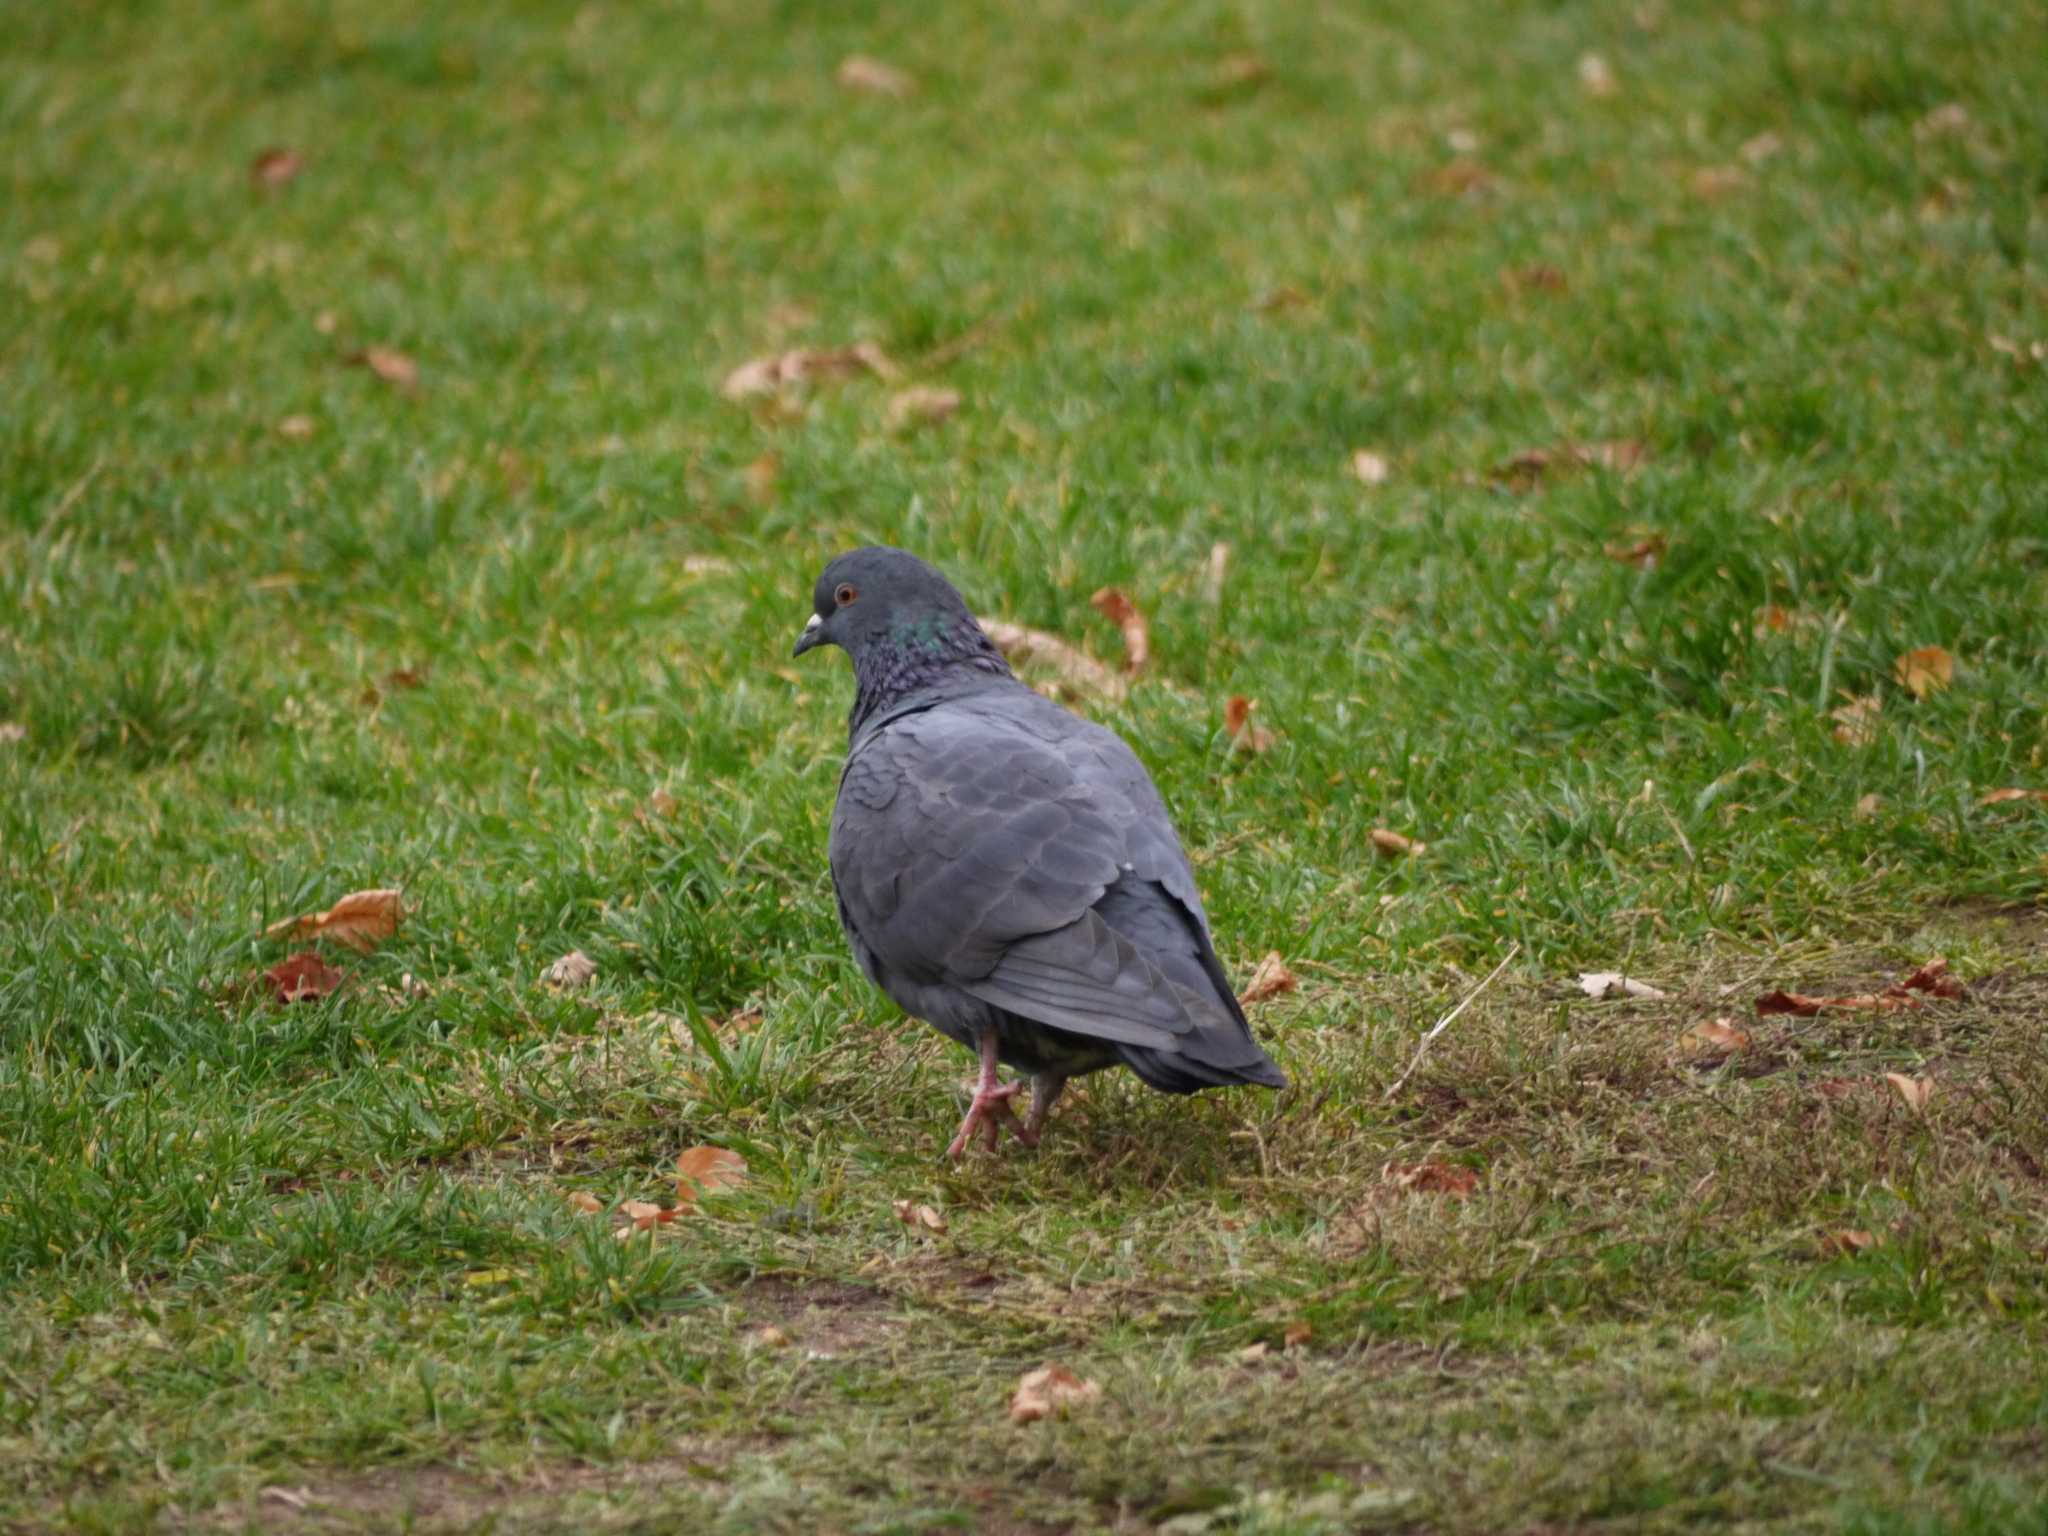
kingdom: Animalia
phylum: Chordata
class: Aves
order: Columbiformes
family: Columbidae
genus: Columba
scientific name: Columba livia
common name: Rock pigeon
